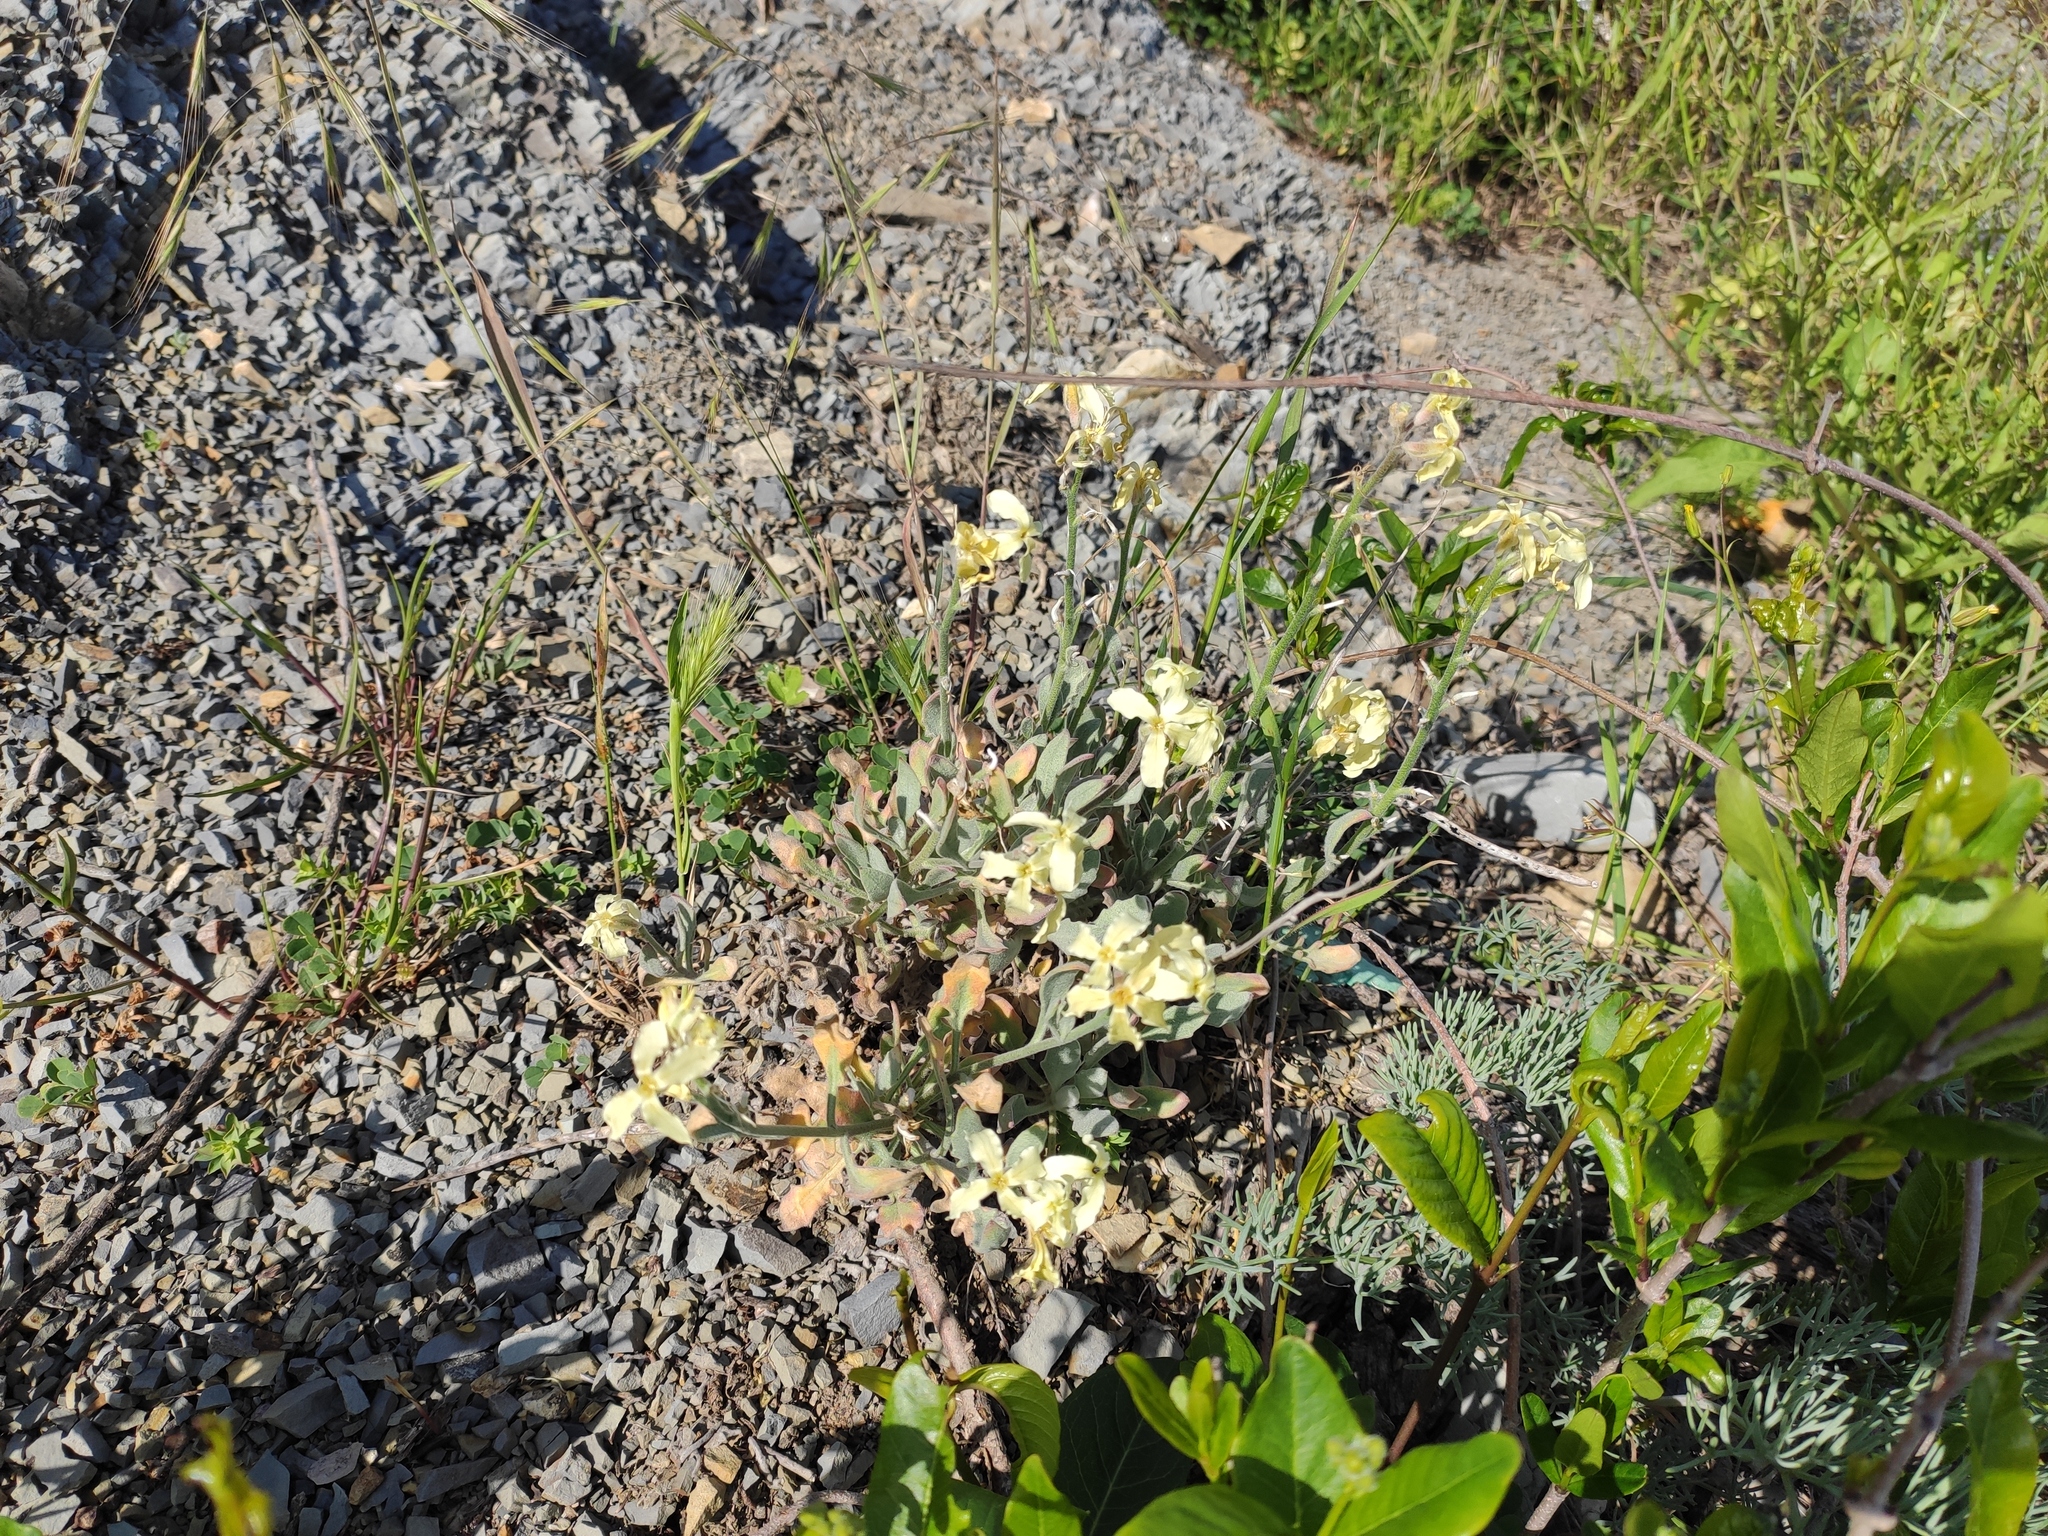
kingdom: Plantae
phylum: Tracheophyta
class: Magnoliopsida
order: Brassicales
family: Brassicaceae
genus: Matthiola
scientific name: Matthiola odoratissima
